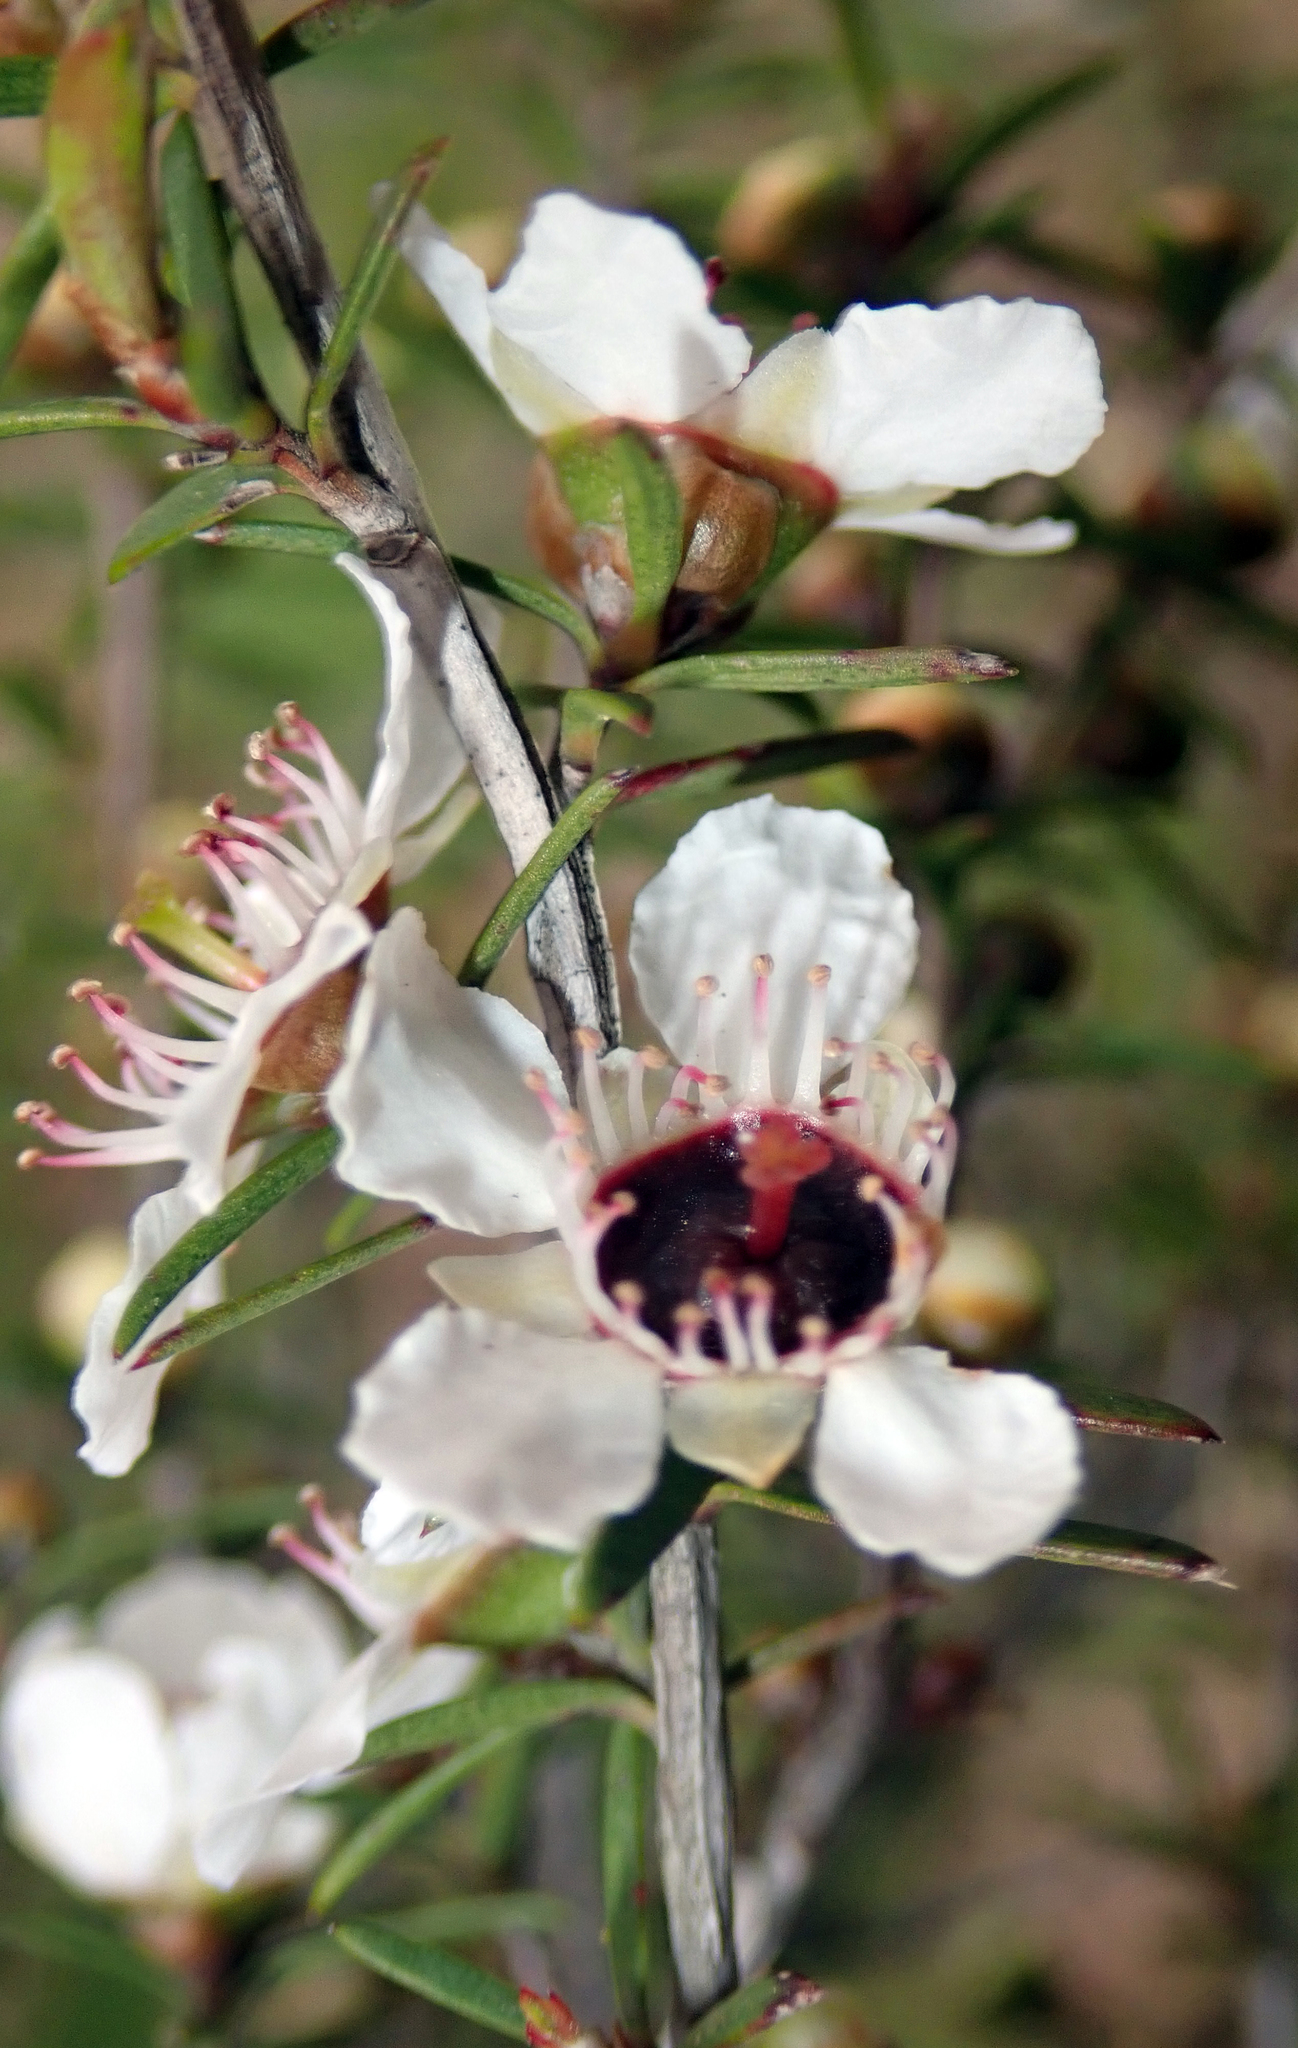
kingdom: Plantae
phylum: Tracheophyta
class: Magnoliopsida
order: Myrtales
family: Myrtaceae
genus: Leptospermum
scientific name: Leptospermum repo
